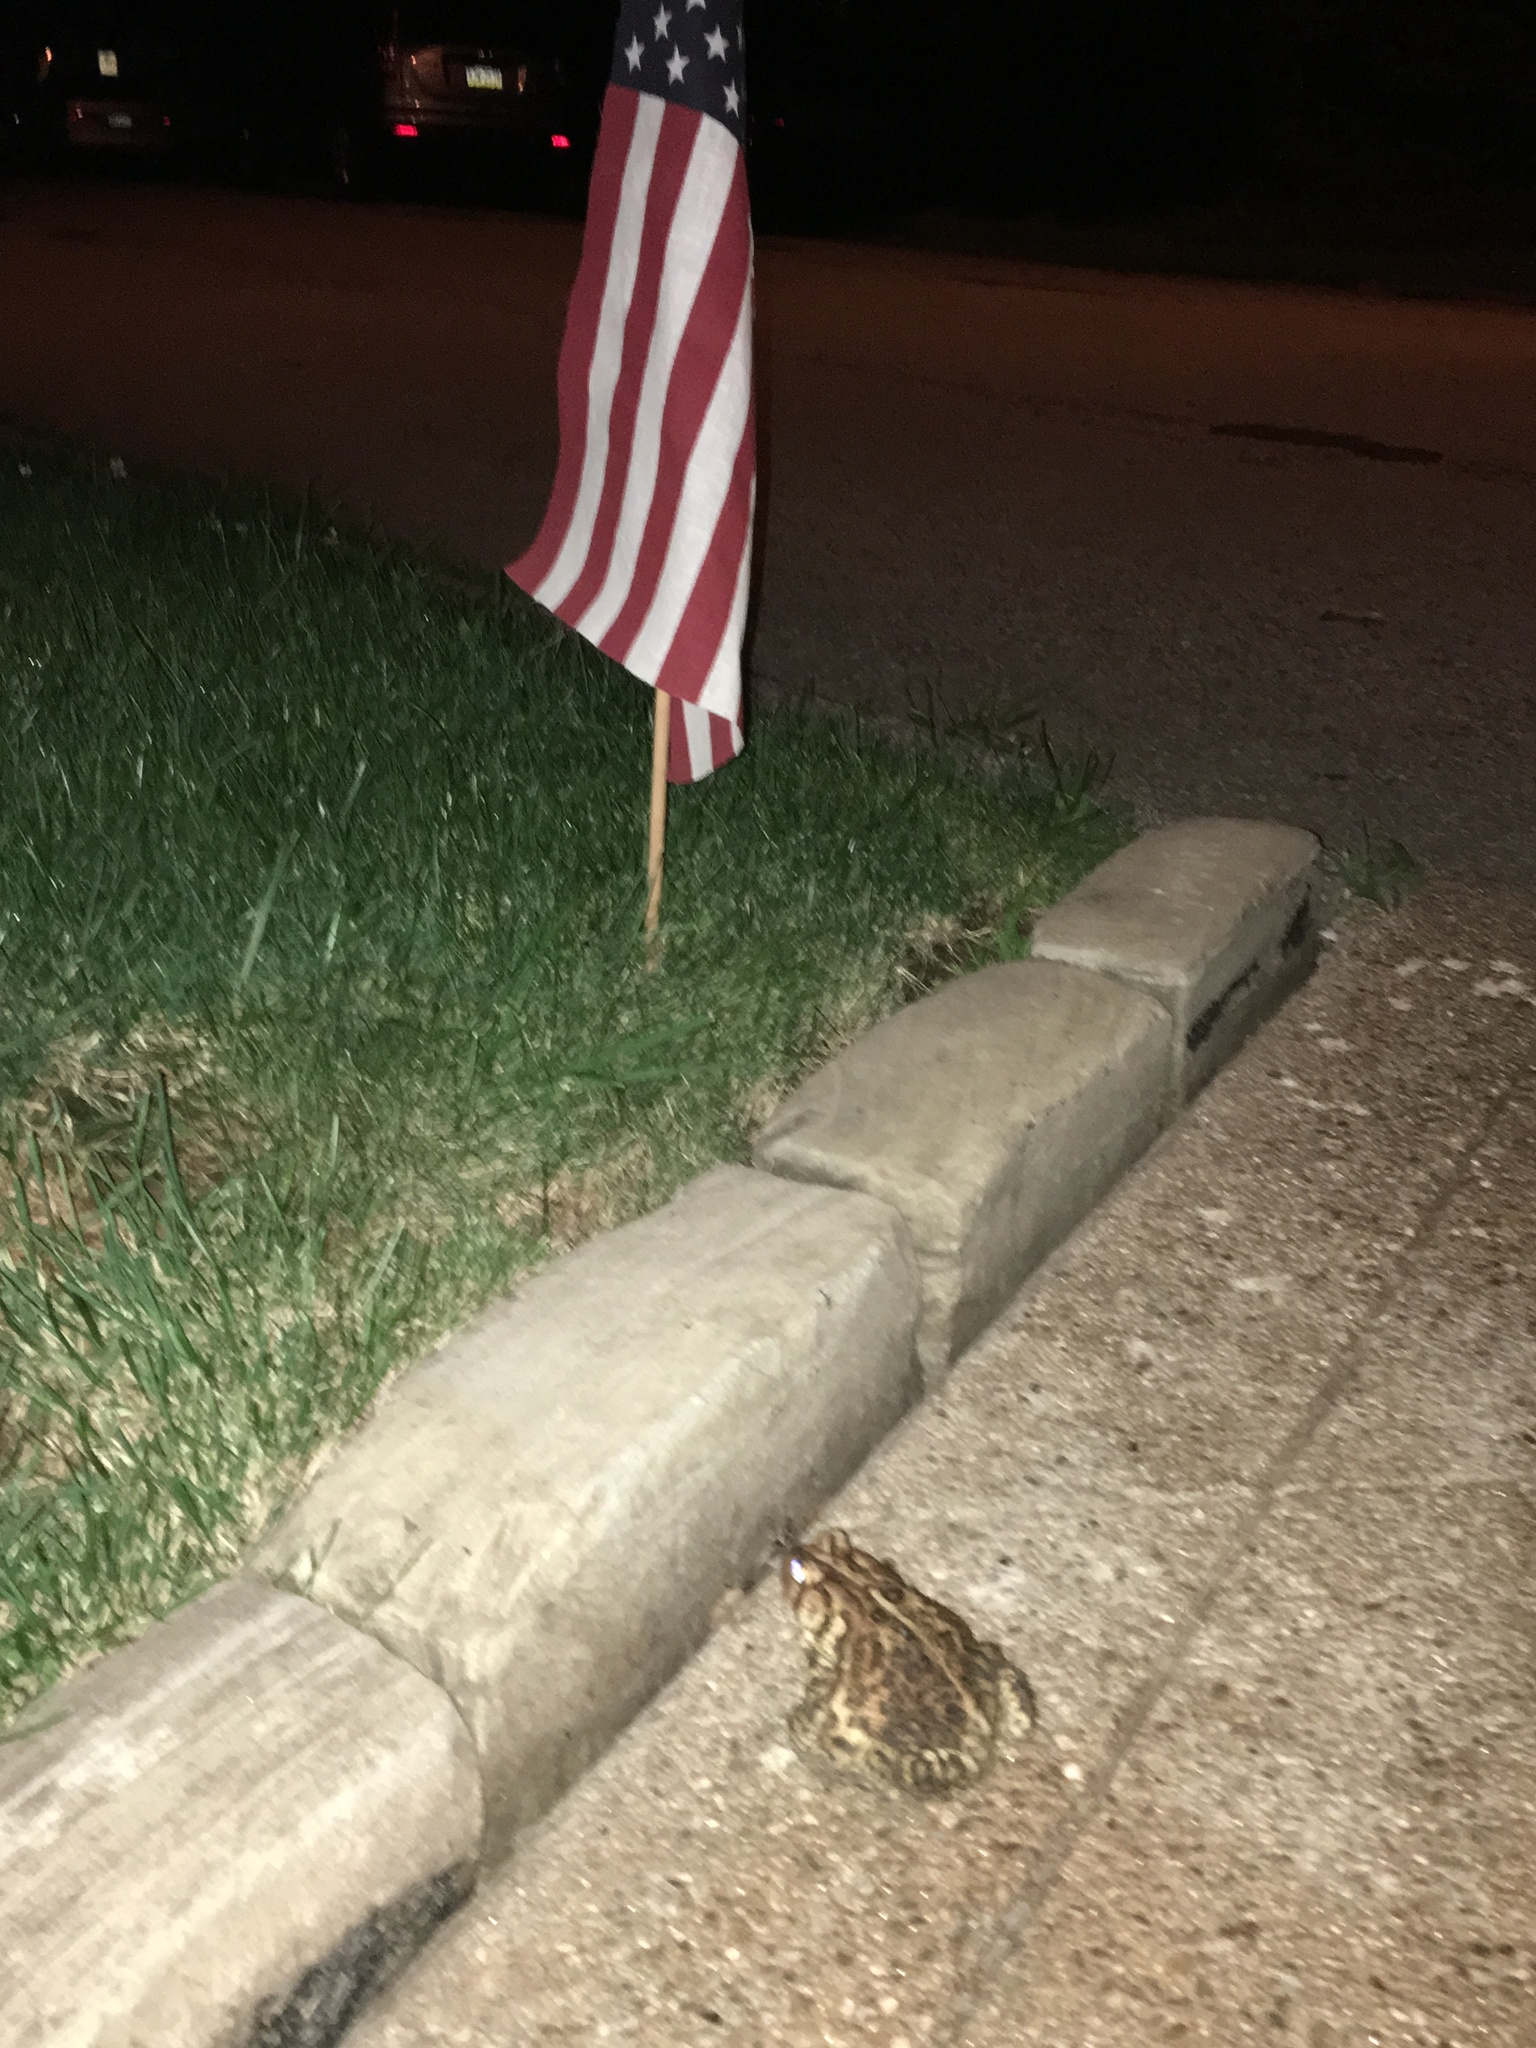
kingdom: Animalia
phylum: Chordata
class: Amphibia
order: Anura
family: Bufonidae
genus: Anaxyrus
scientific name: Anaxyrus americanus
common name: American toad
